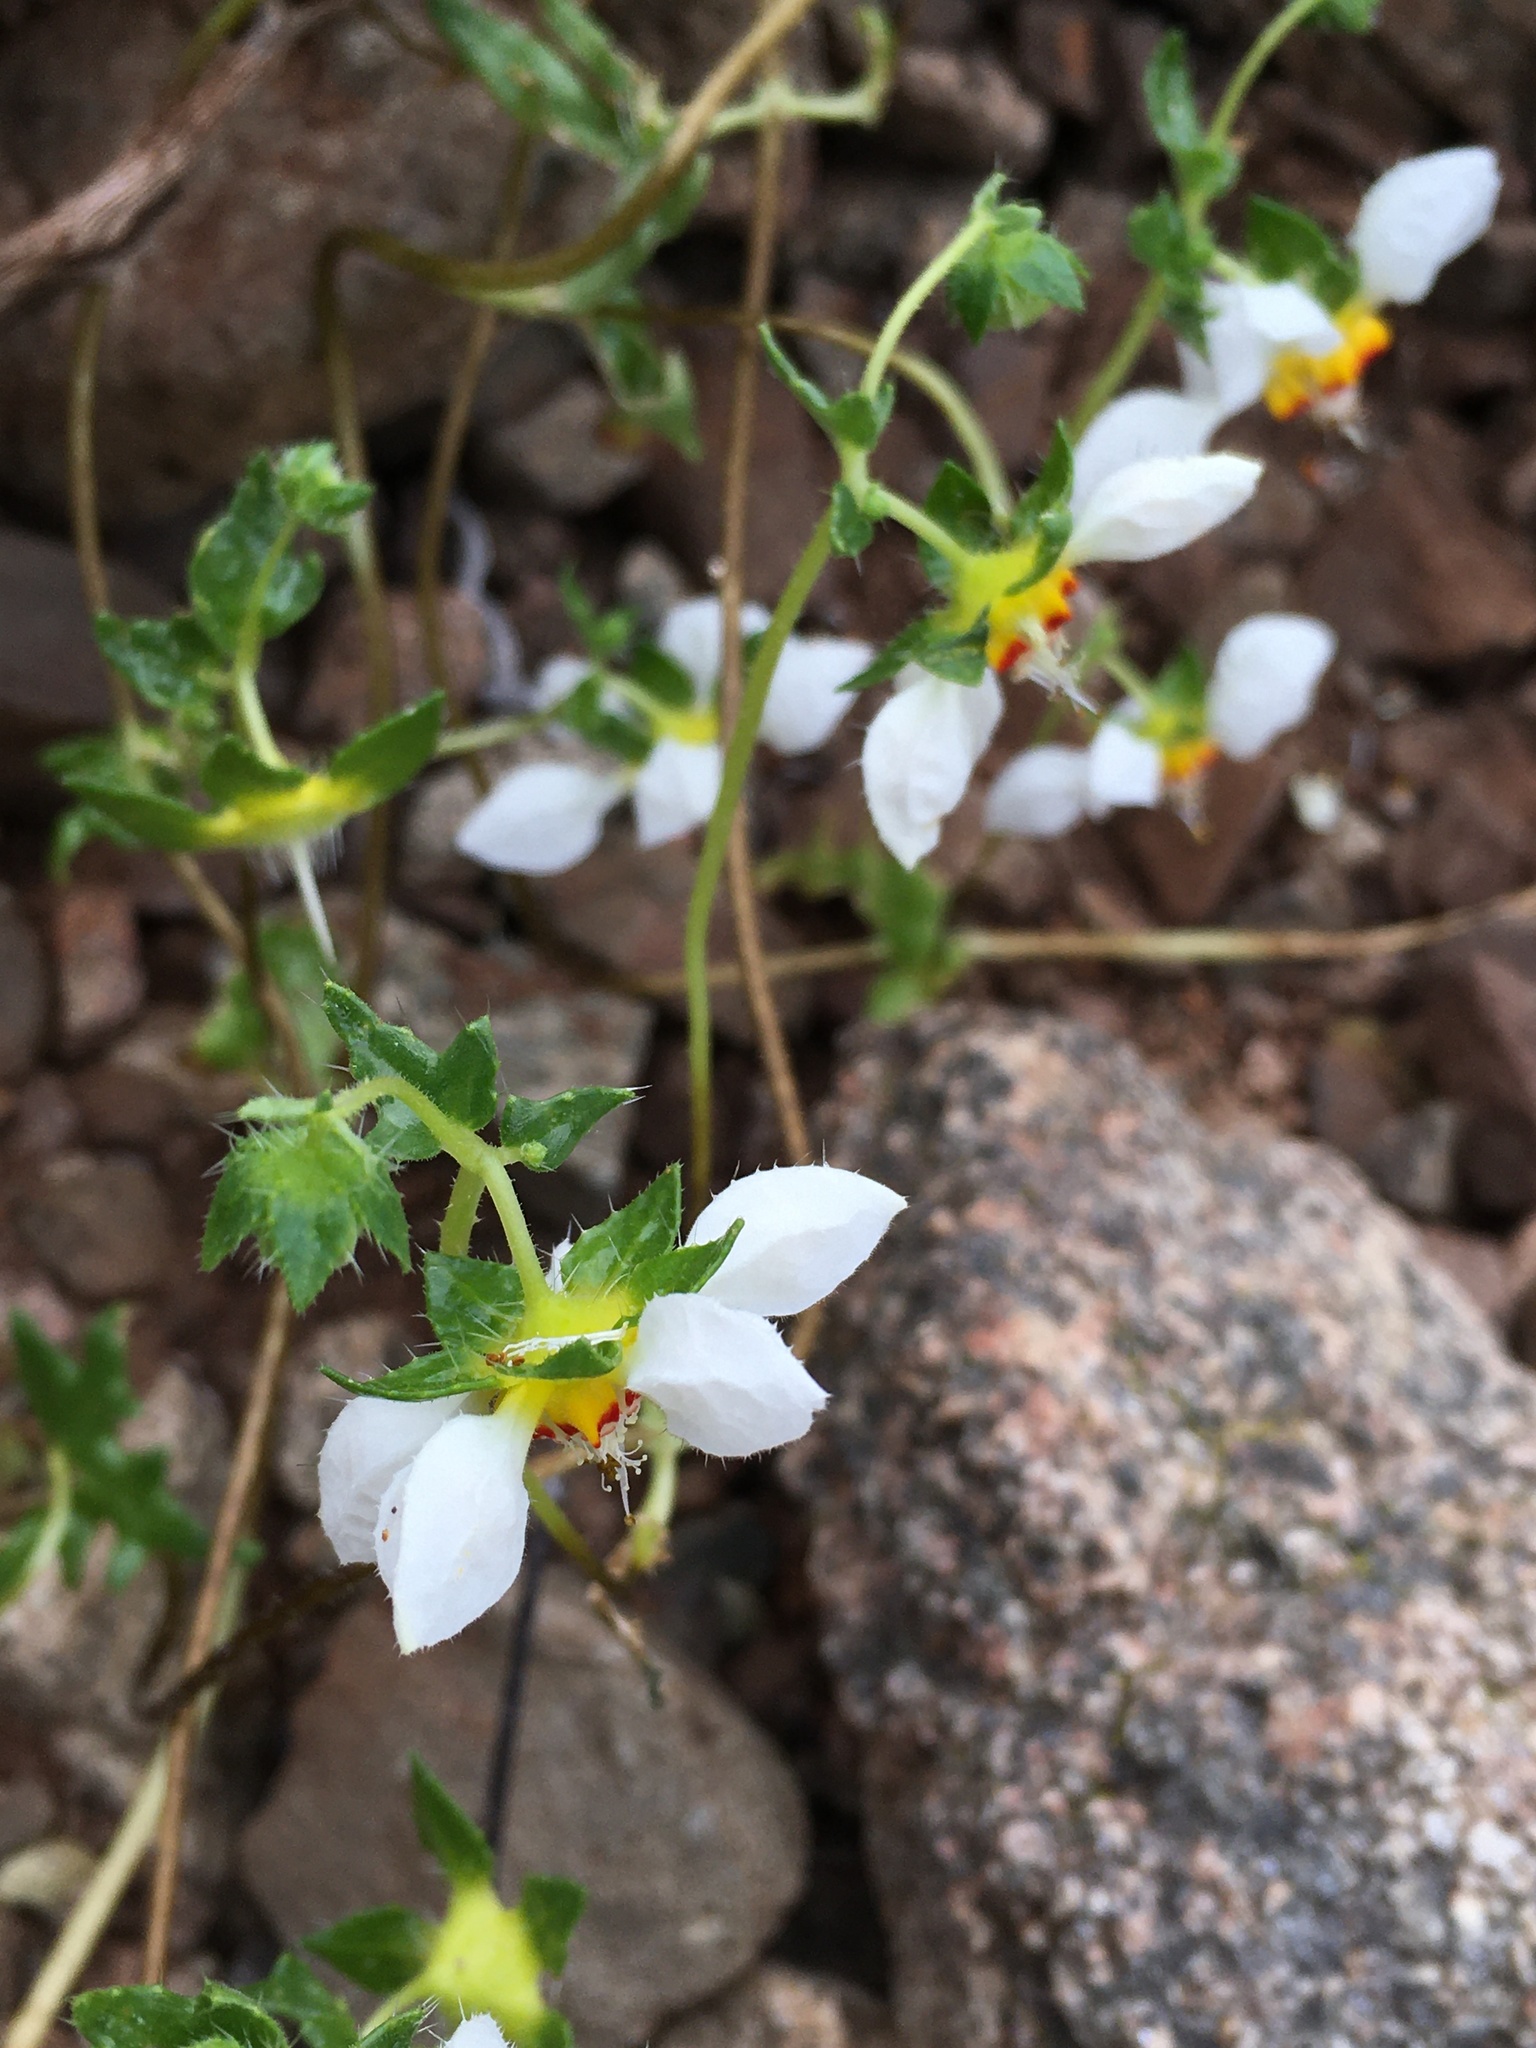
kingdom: Plantae
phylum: Tracheophyta
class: Magnoliopsida
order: Cornales
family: Loasaceae
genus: Loasa
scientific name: Loasa elongata
